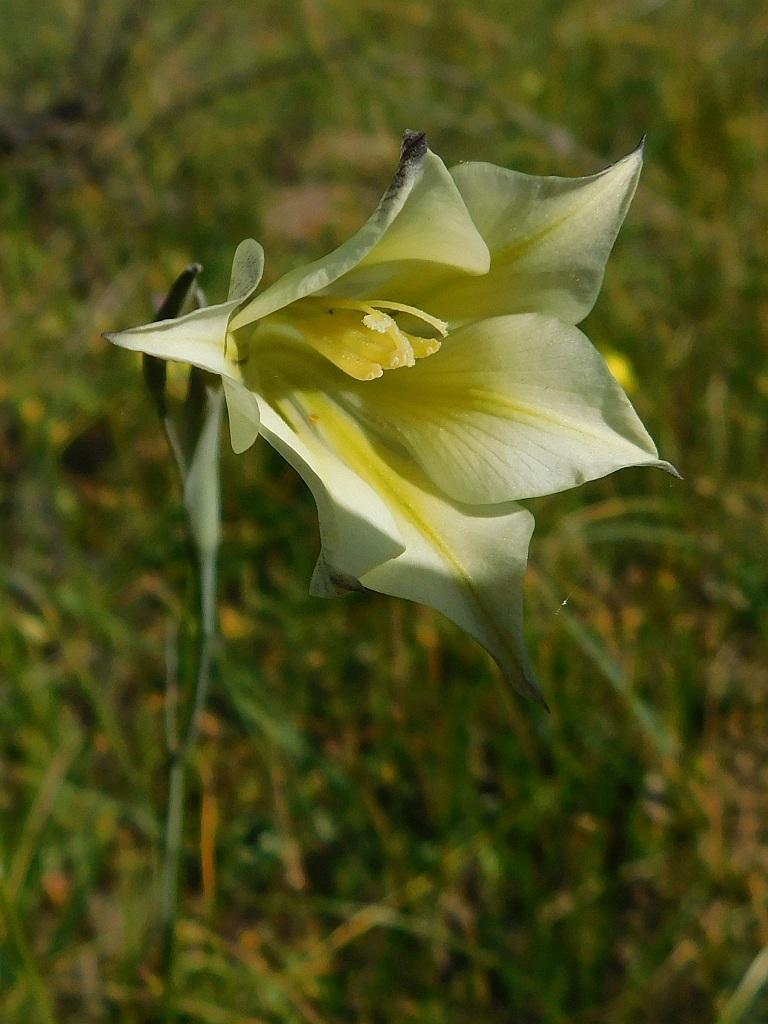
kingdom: Plantae
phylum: Tracheophyta
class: Liliopsida
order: Asparagales
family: Iridaceae
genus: Gladiolus
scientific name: Gladiolus tristis
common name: Ever-flowering gladiolus
